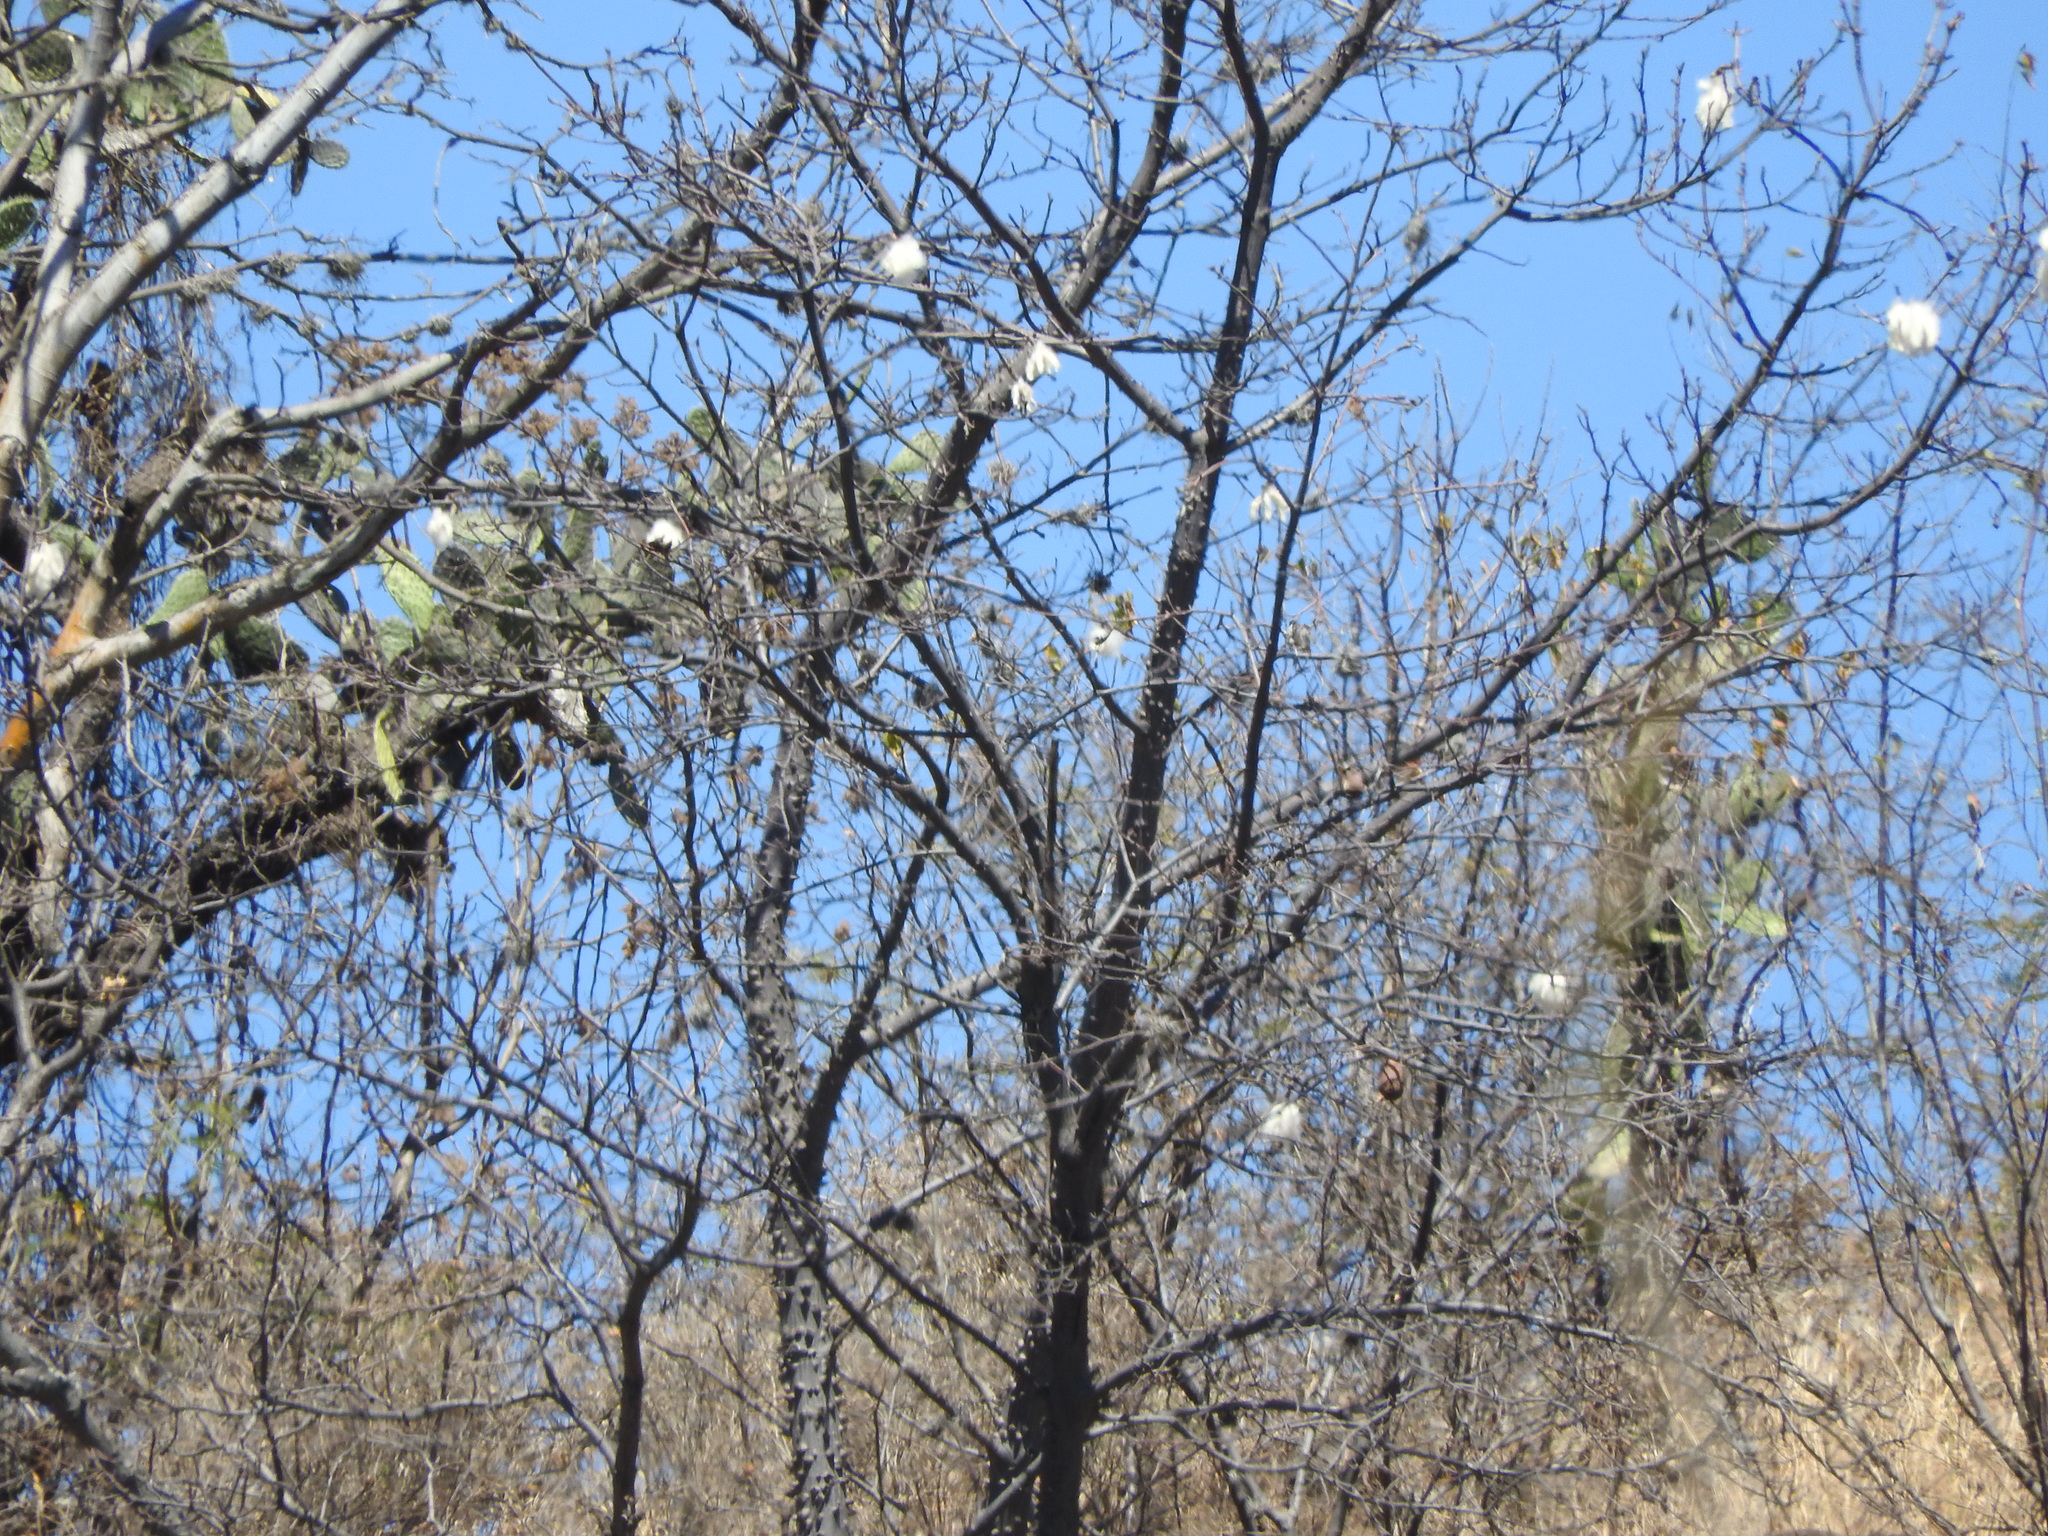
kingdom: Plantae
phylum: Tracheophyta
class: Magnoliopsida
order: Malvales
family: Malvaceae
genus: Ceiba
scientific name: Ceiba aesculifolia
